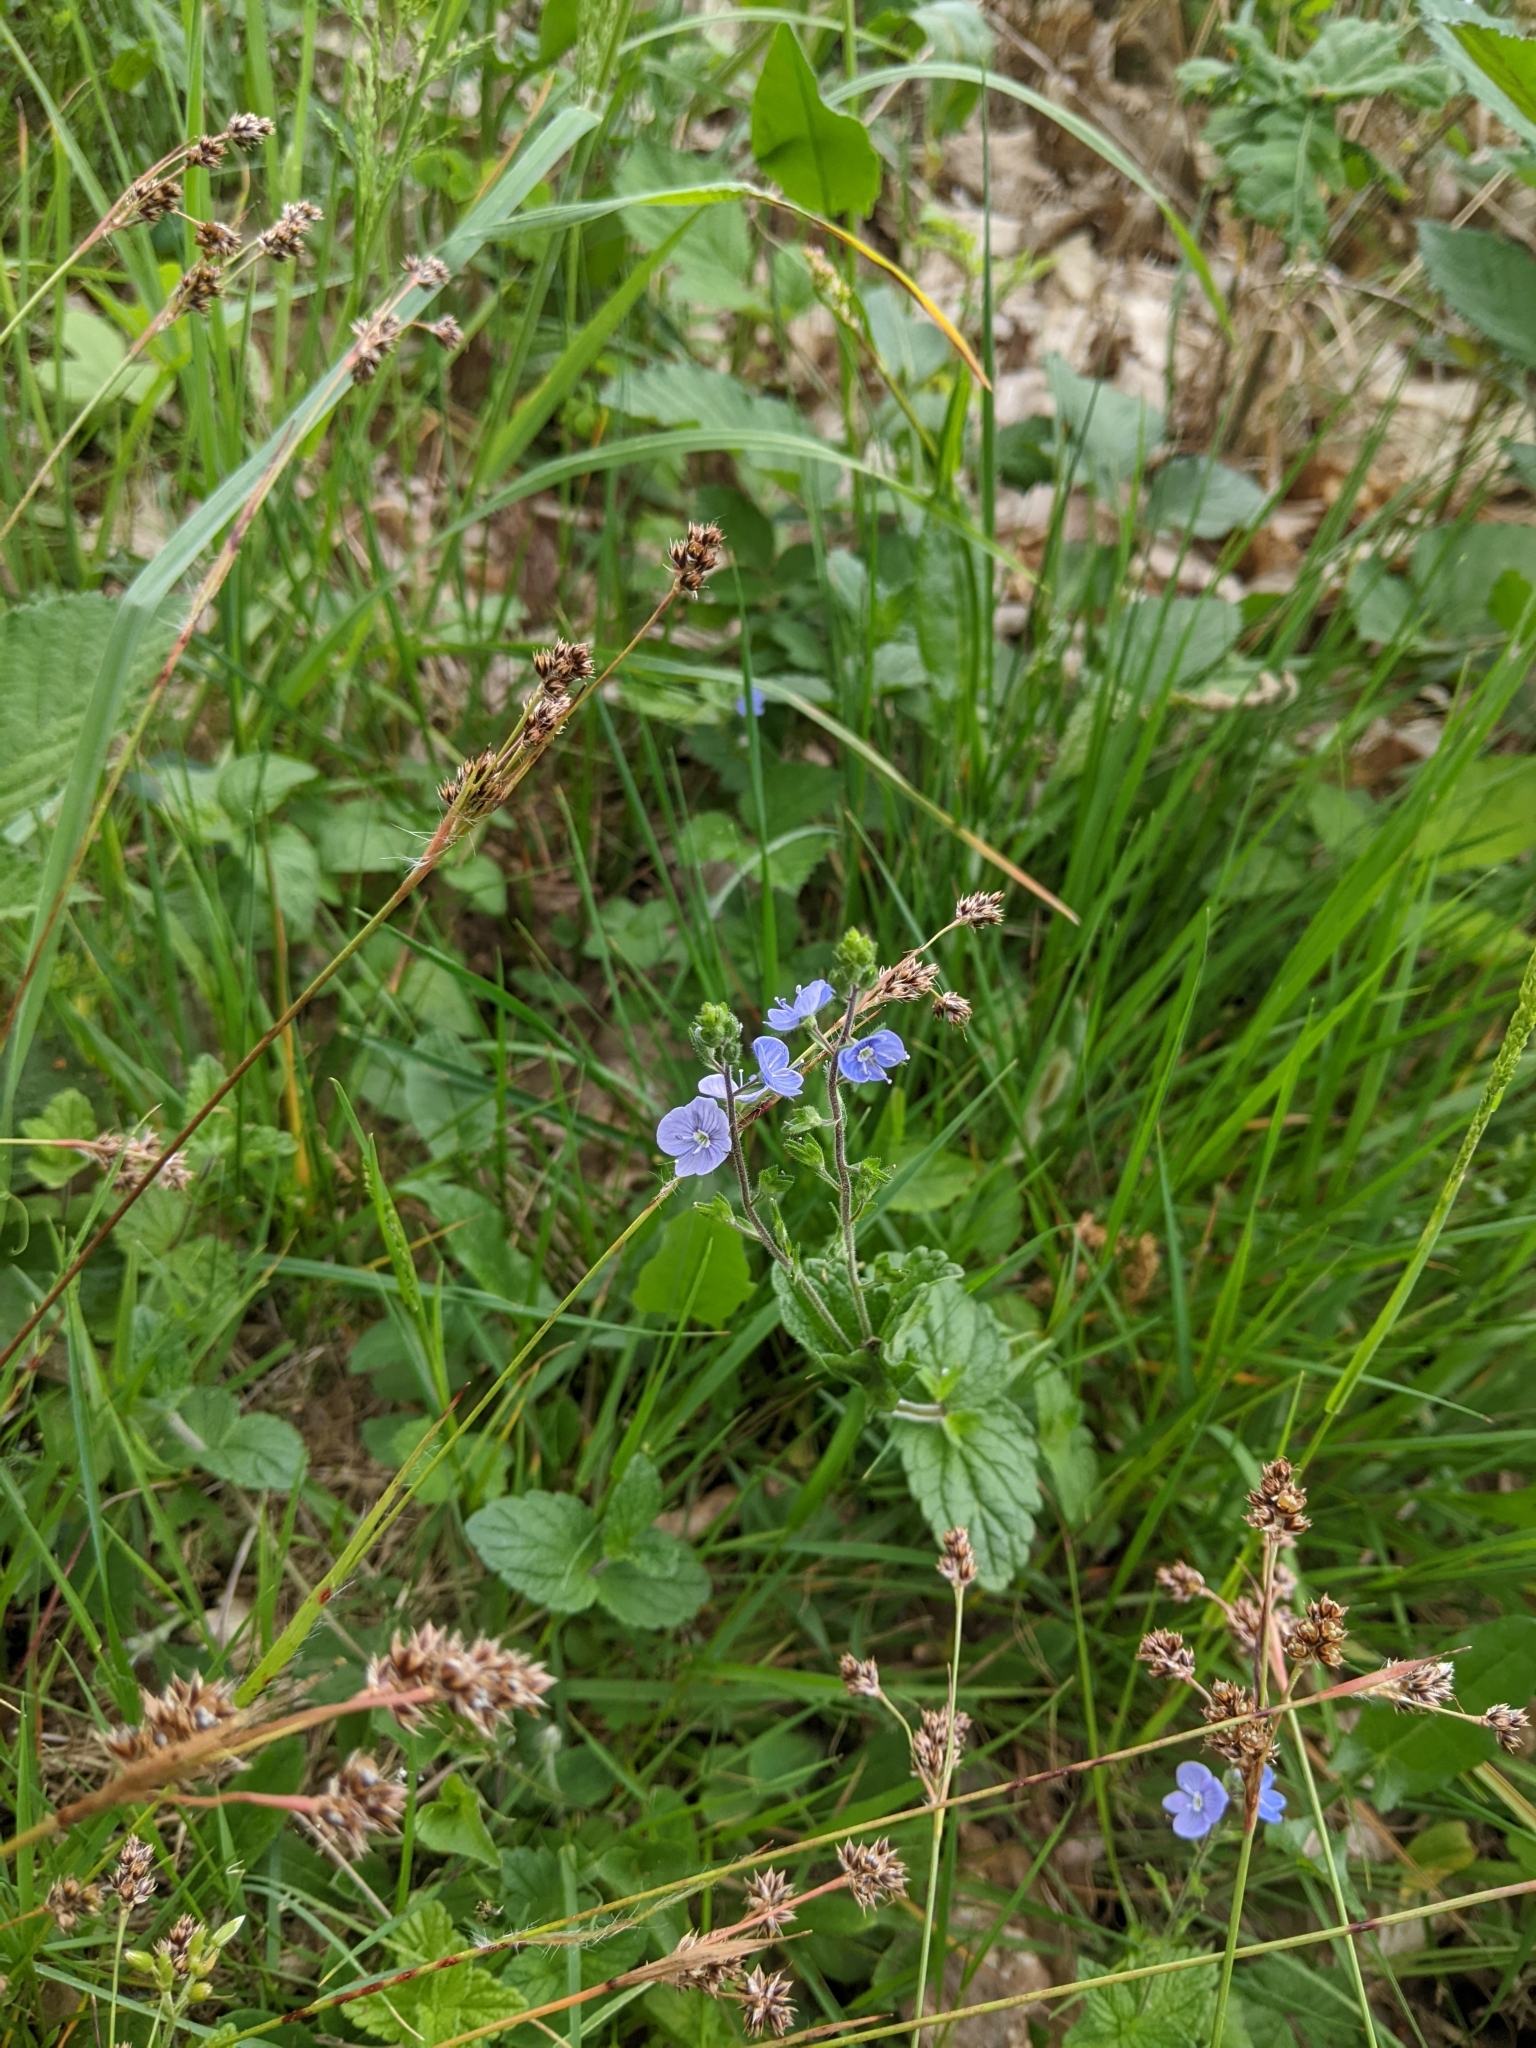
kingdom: Plantae
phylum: Tracheophyta
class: Magnoliopsida
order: Lamiales
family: Plantaginaceae
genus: Veronica
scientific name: Veronica chamaedrys
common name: Germander speedwell
